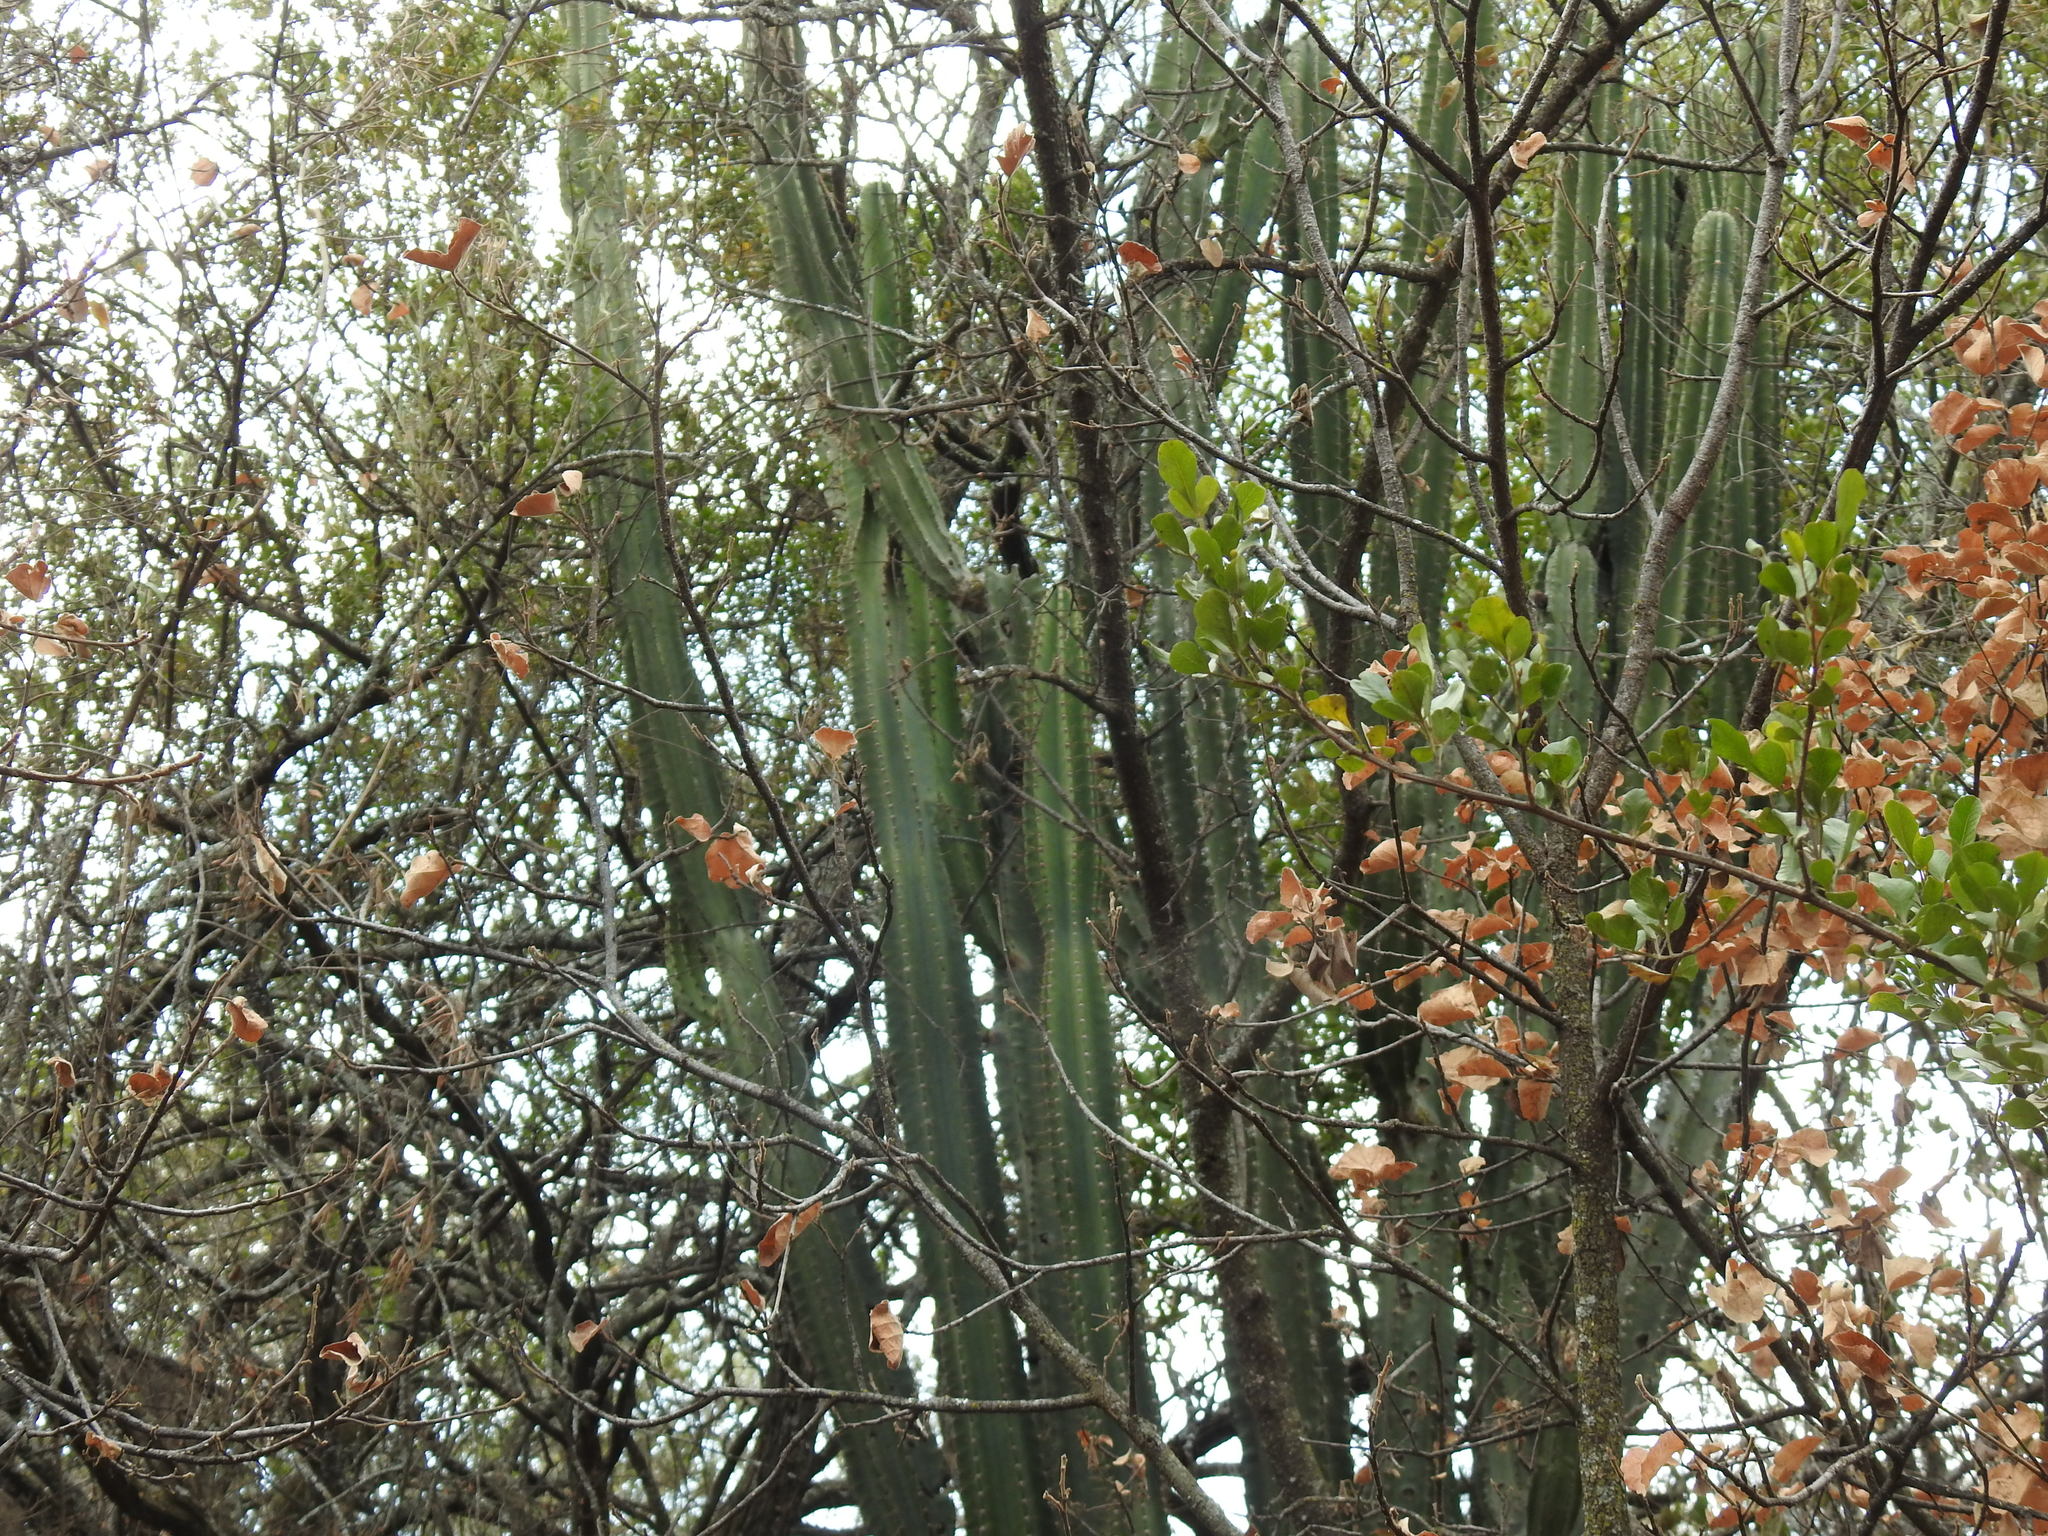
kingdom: Plantae
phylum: Tracheophyta
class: Magnoliopsida
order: Caryophyllales
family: Cactaceae
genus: Cereus
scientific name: Cereus jamacaru
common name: Queen-of-the-night
